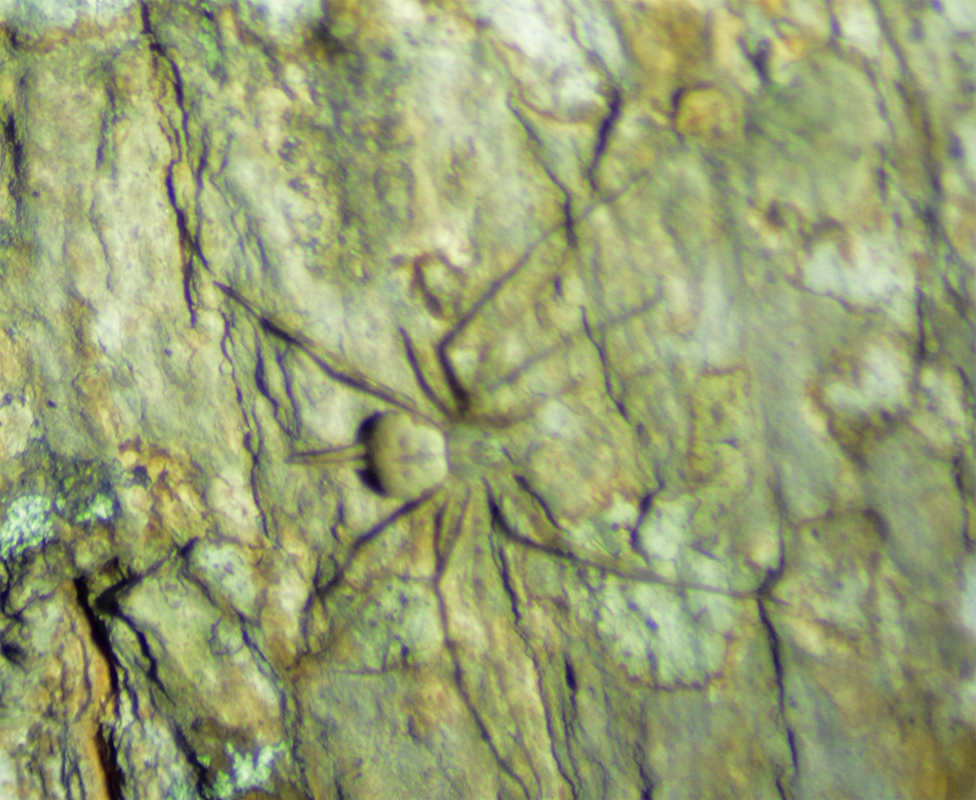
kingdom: Animalia
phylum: Arthropoda
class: Arachnida
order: Araneae
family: Hersiliidae
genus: Neotama
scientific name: Neotama mexicana
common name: Tree trunk spiders
